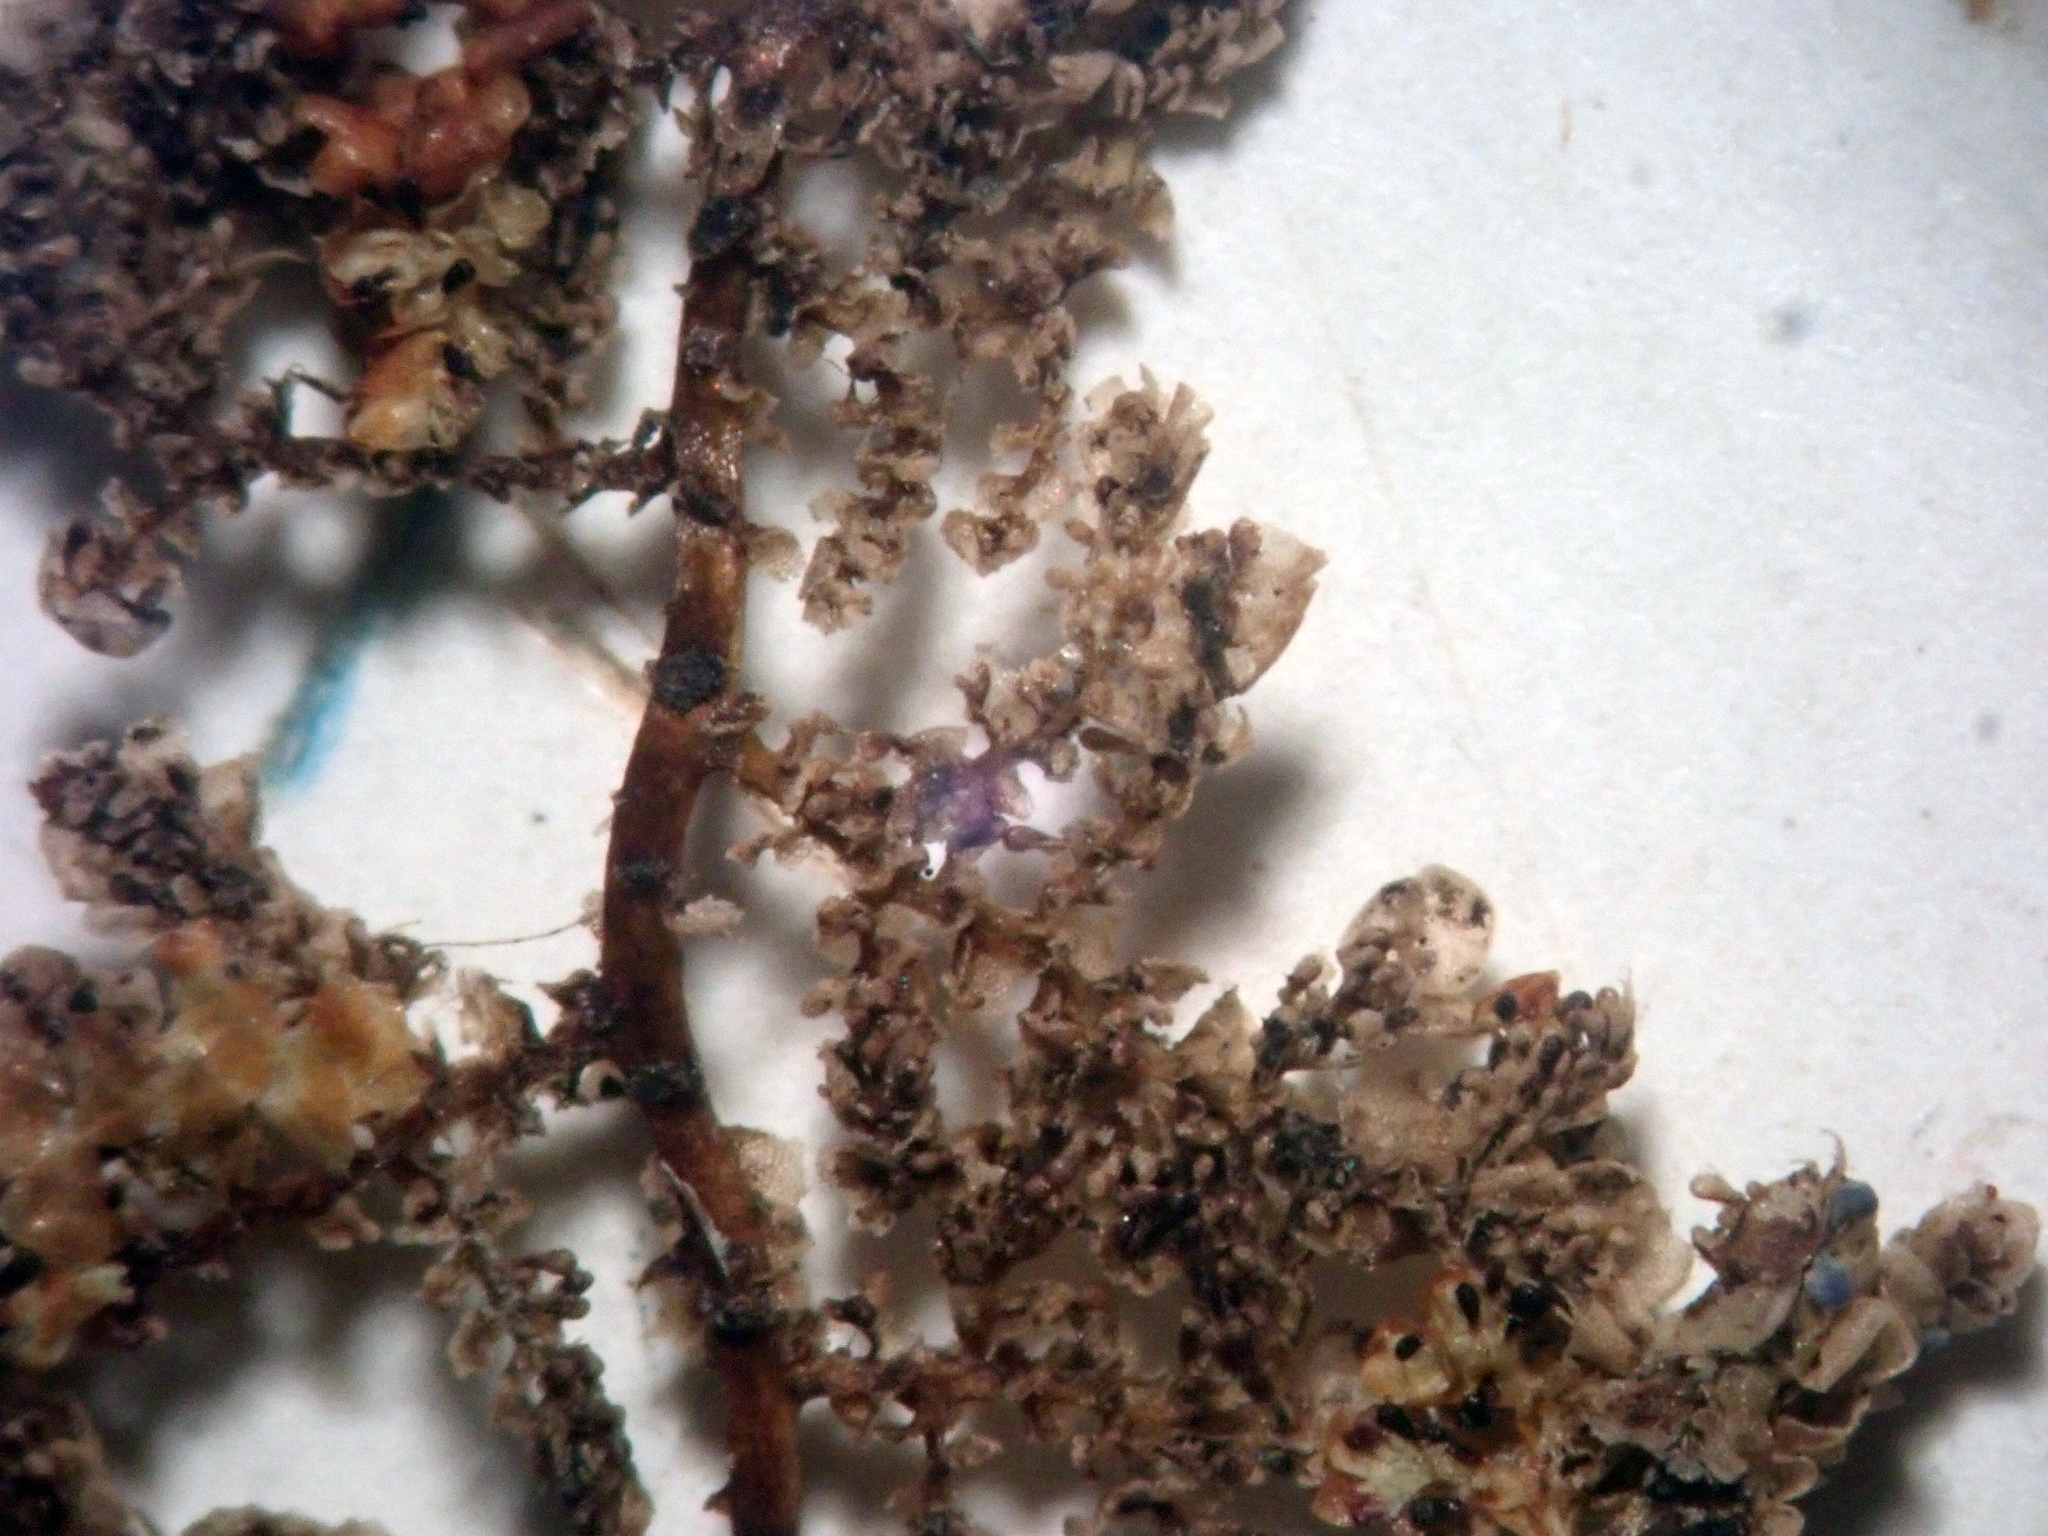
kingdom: Plantae
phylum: Marchantiophyta
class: Jungermanniopsida
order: Porellales
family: Lepidolaenaceae
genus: Lepidolaena
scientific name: Lepidolaena taylorii
